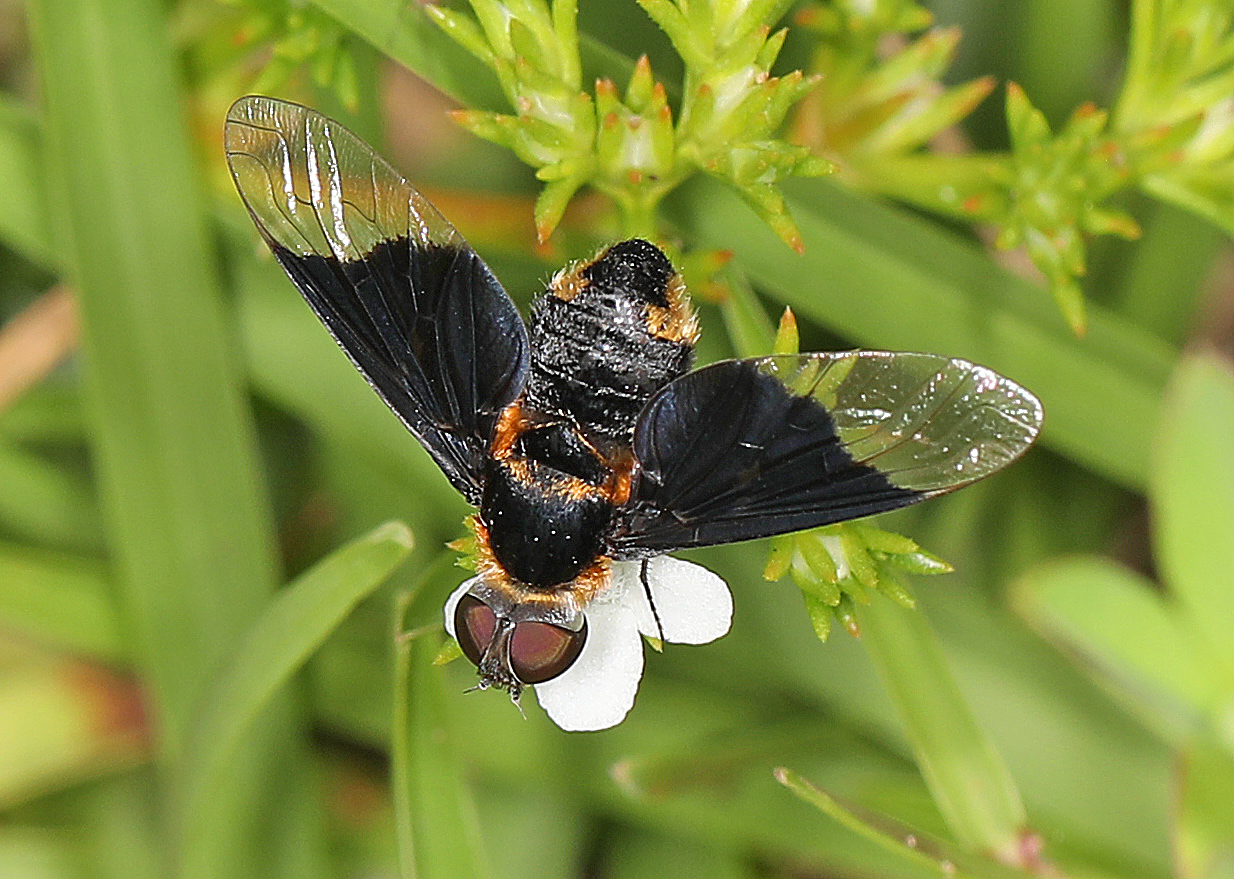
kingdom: Animalia
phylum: Arthropoda
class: Insecta
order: Diptera
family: Bombyliidae
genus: Ins
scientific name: Ins celeris
